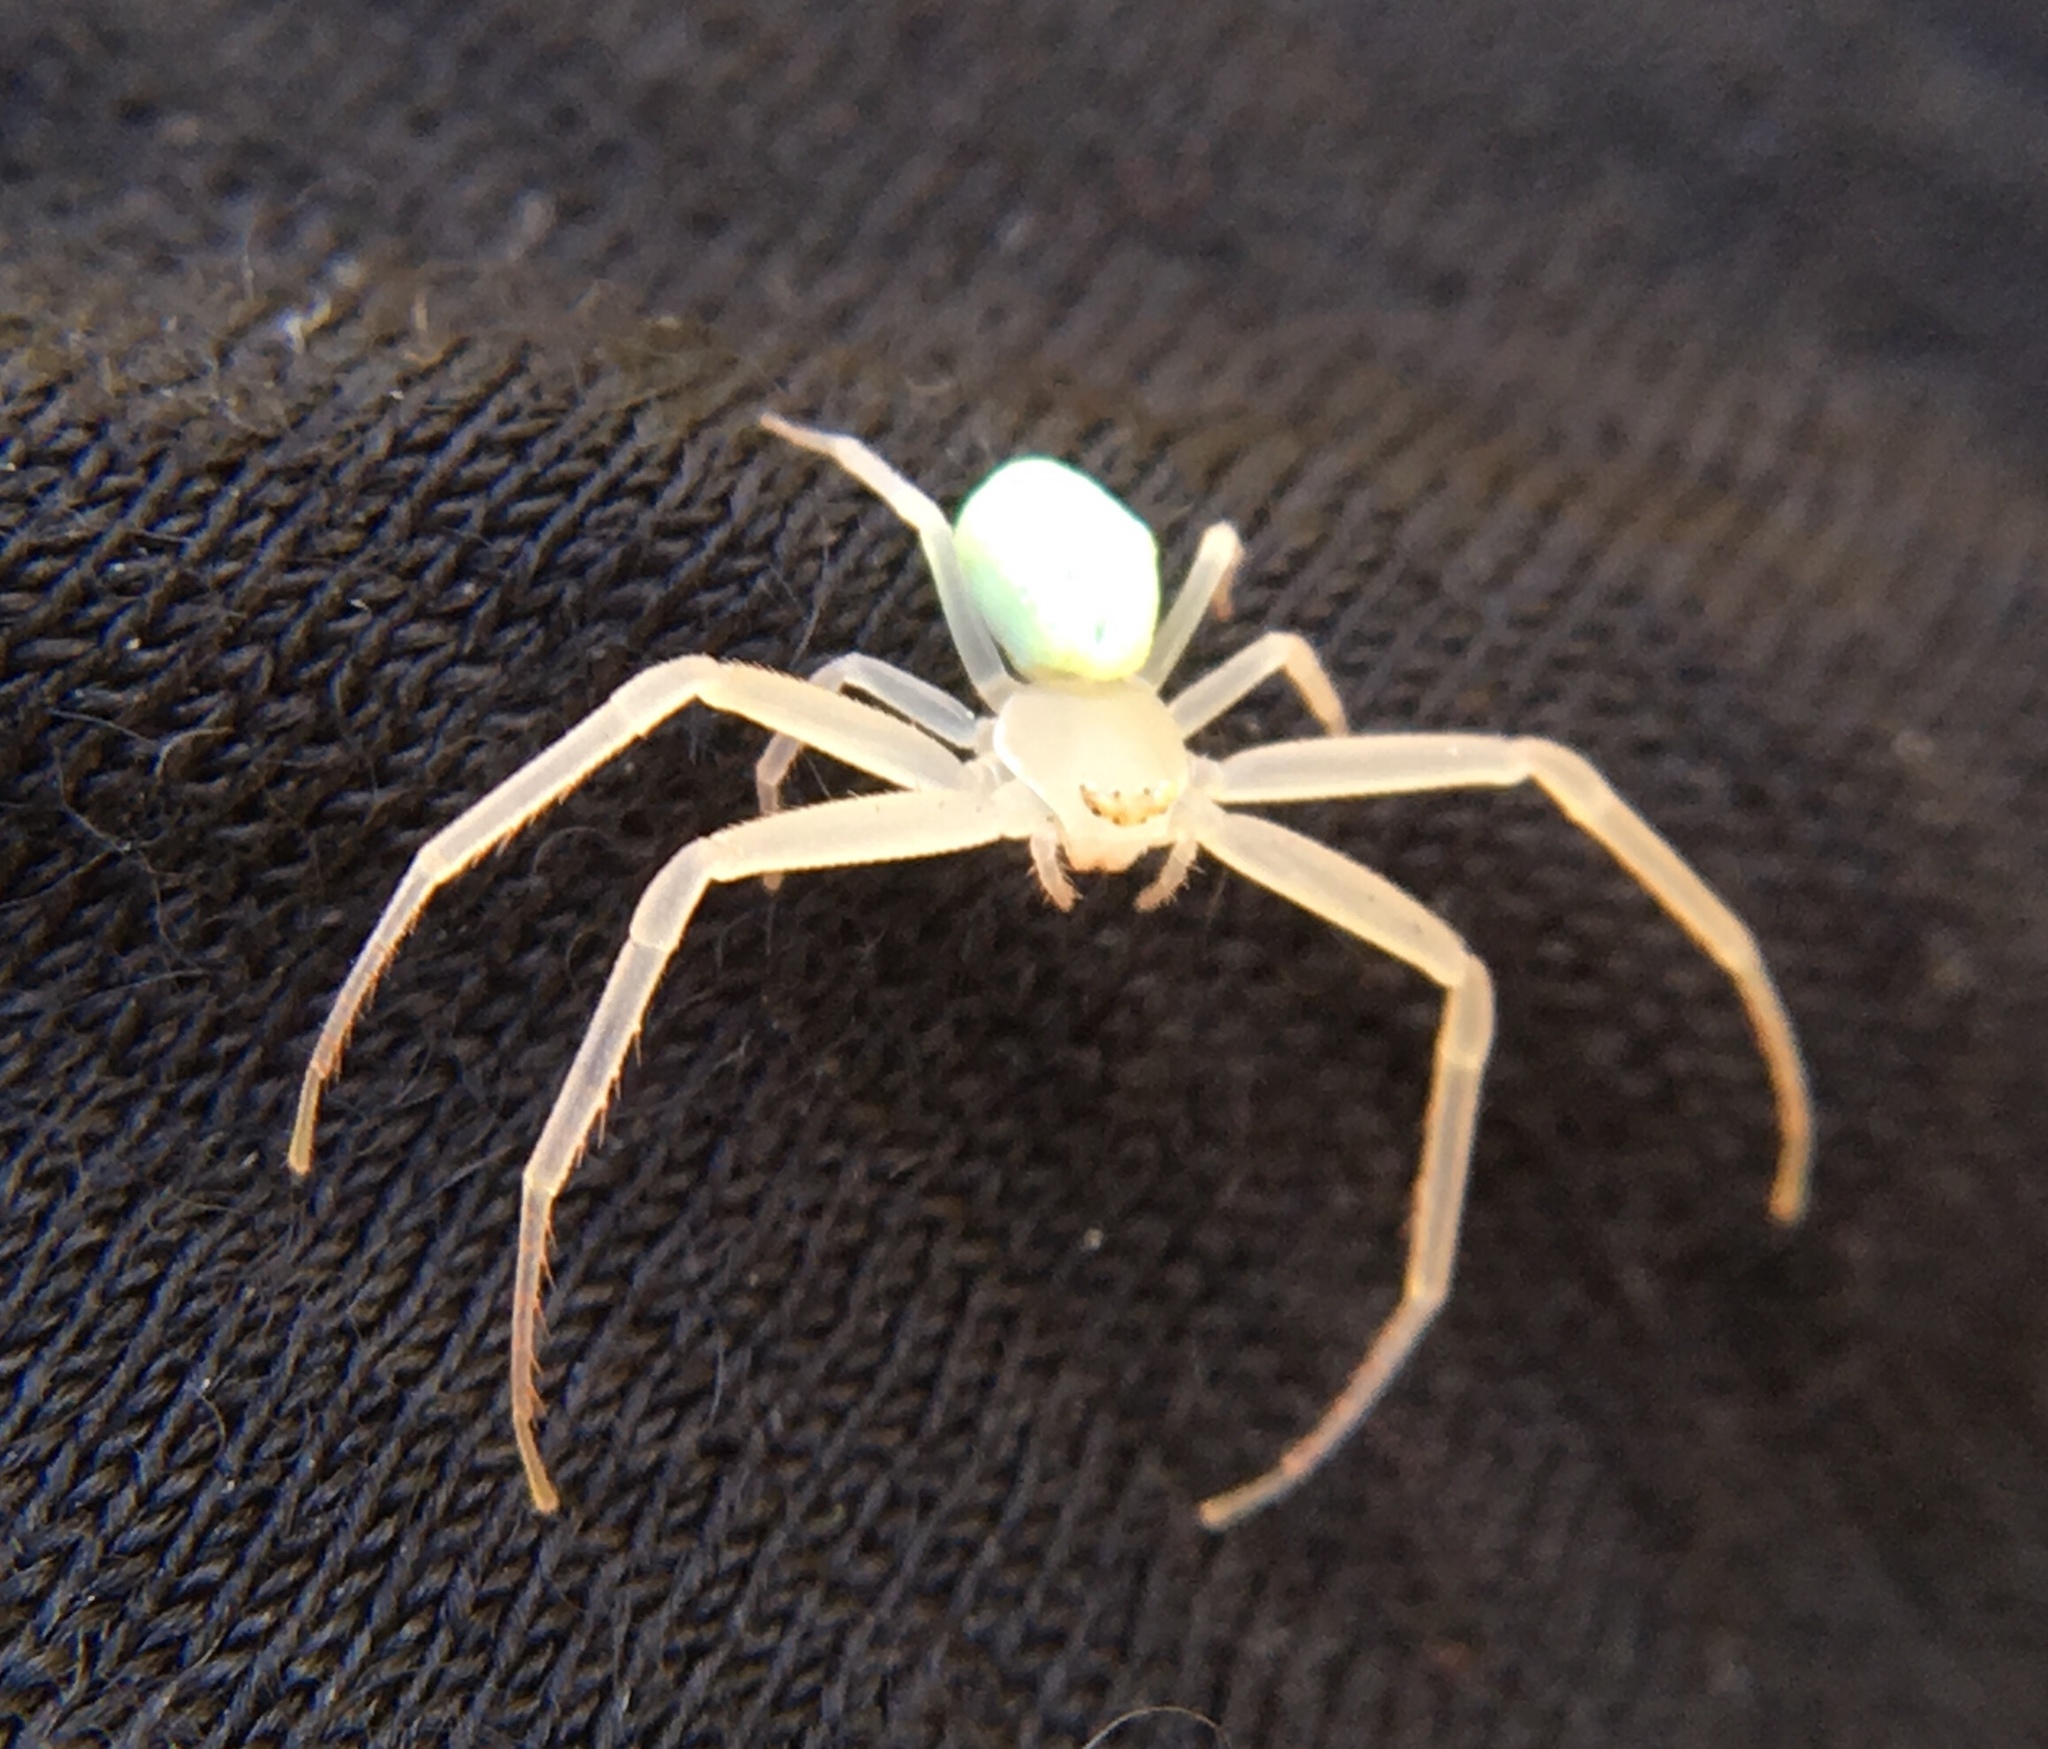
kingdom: Animalia
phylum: Arthropoda
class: Arachnida
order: Araneae
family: Thomisidae
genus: Misumessus
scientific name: Misumessus oblongus
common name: American green crab spider
